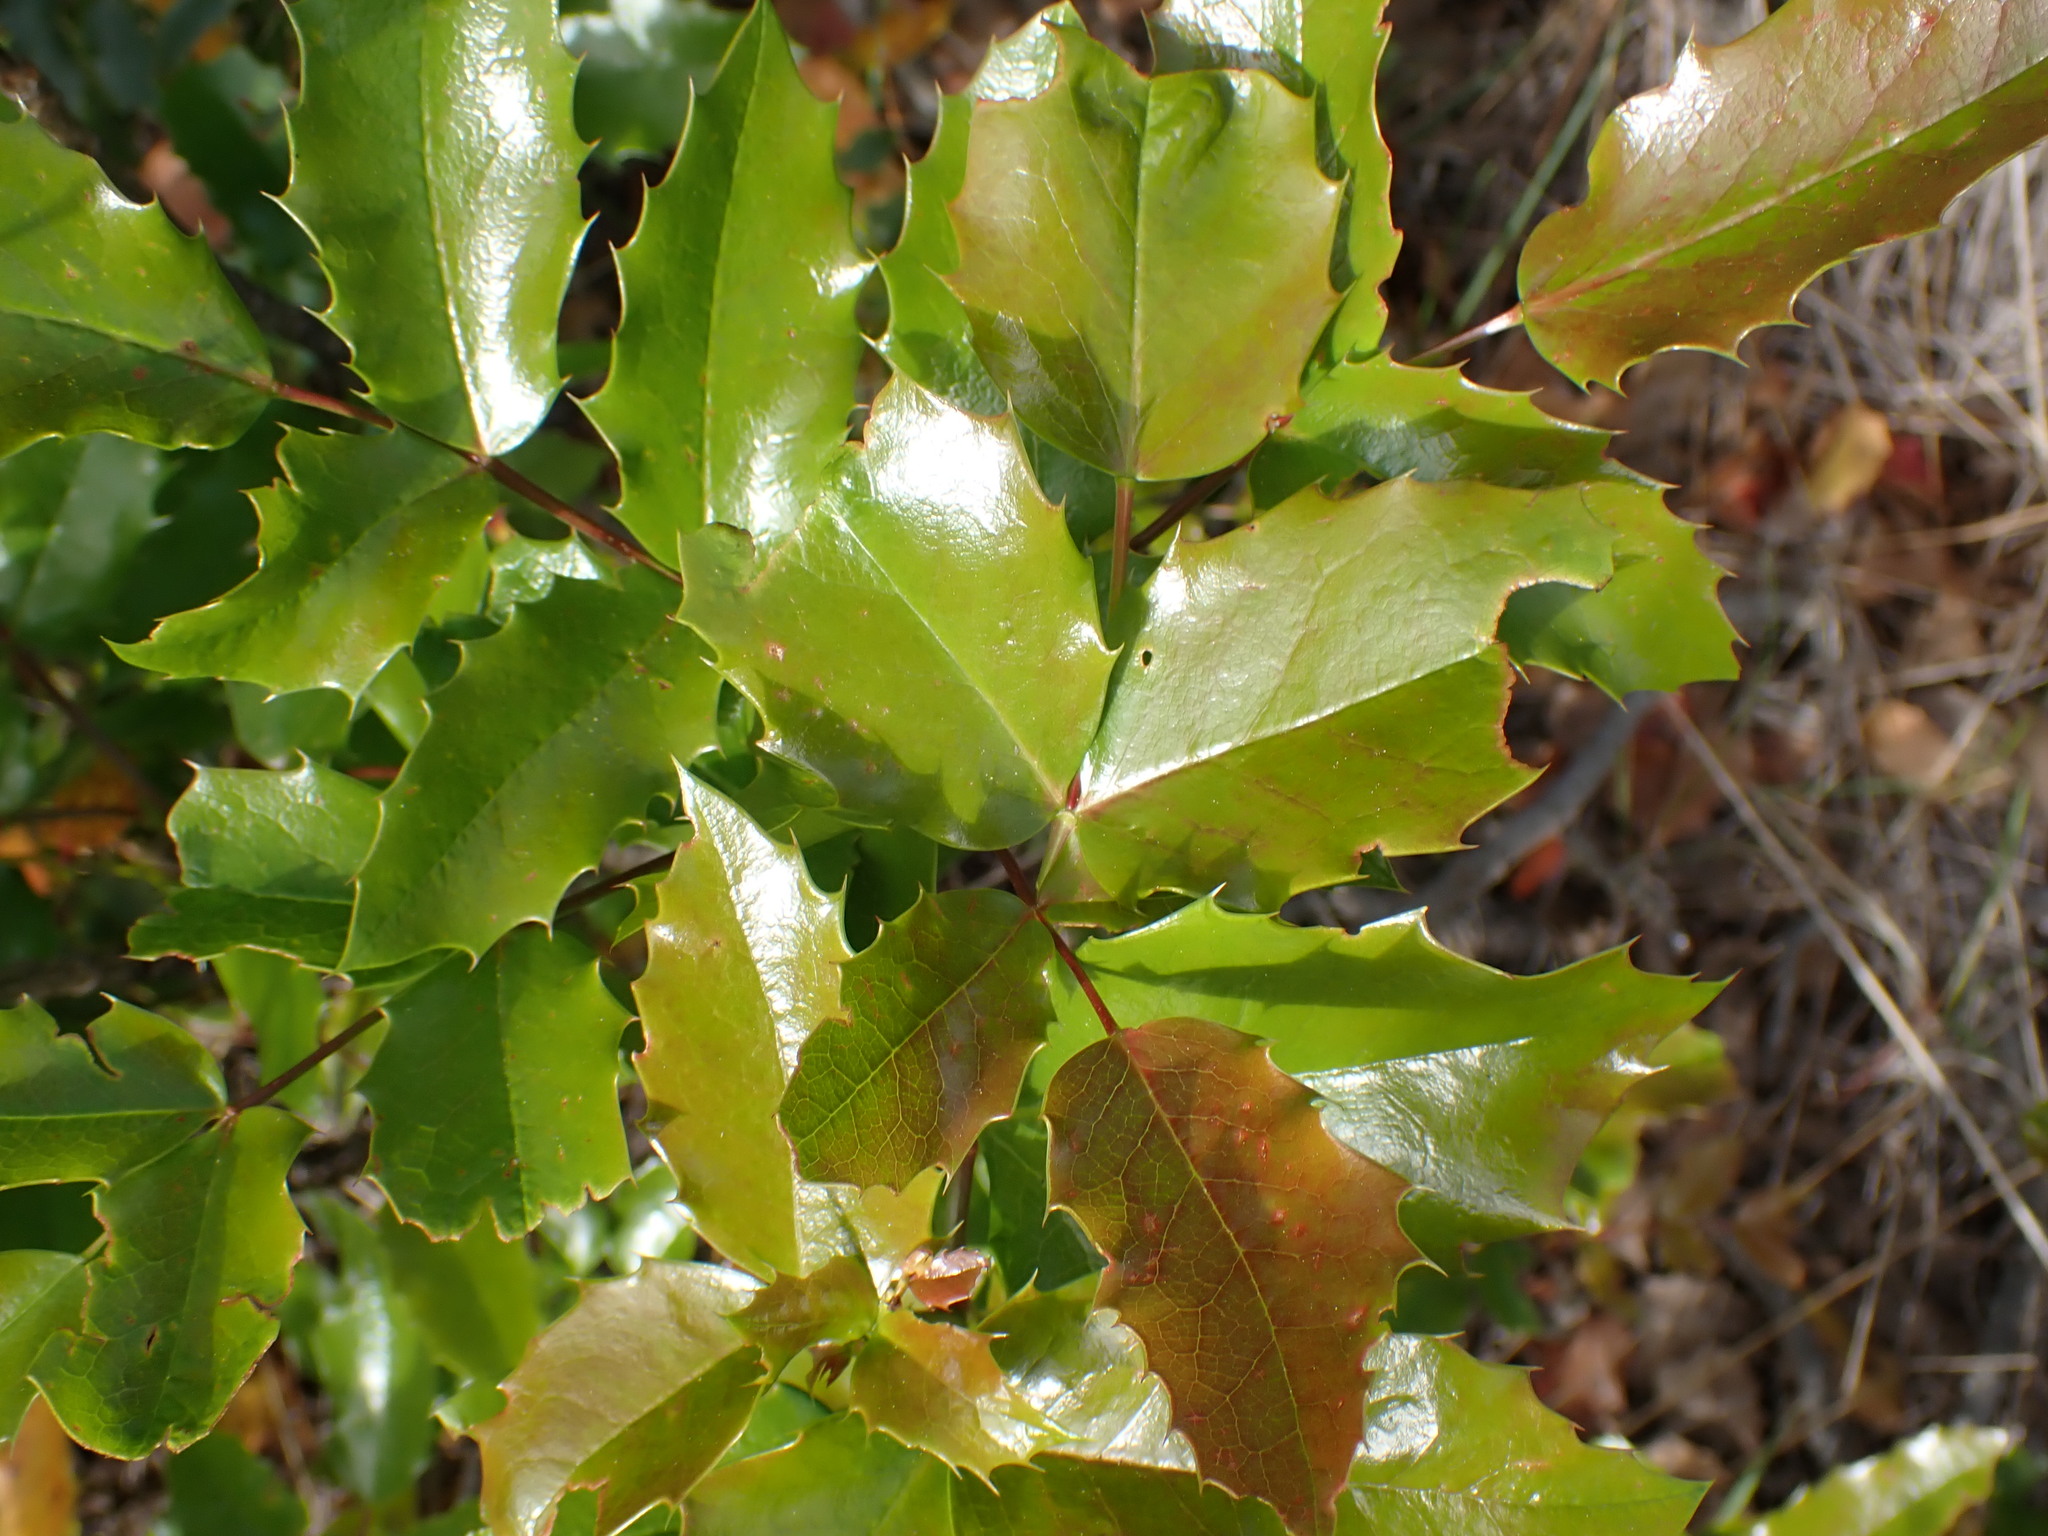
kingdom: Plantae
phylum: Tracheophyta
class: Magnoliopsida
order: Ranunculales
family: Berberidaceae
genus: Mahonia
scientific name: Mahonia aquifolium
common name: Oregon-grape
